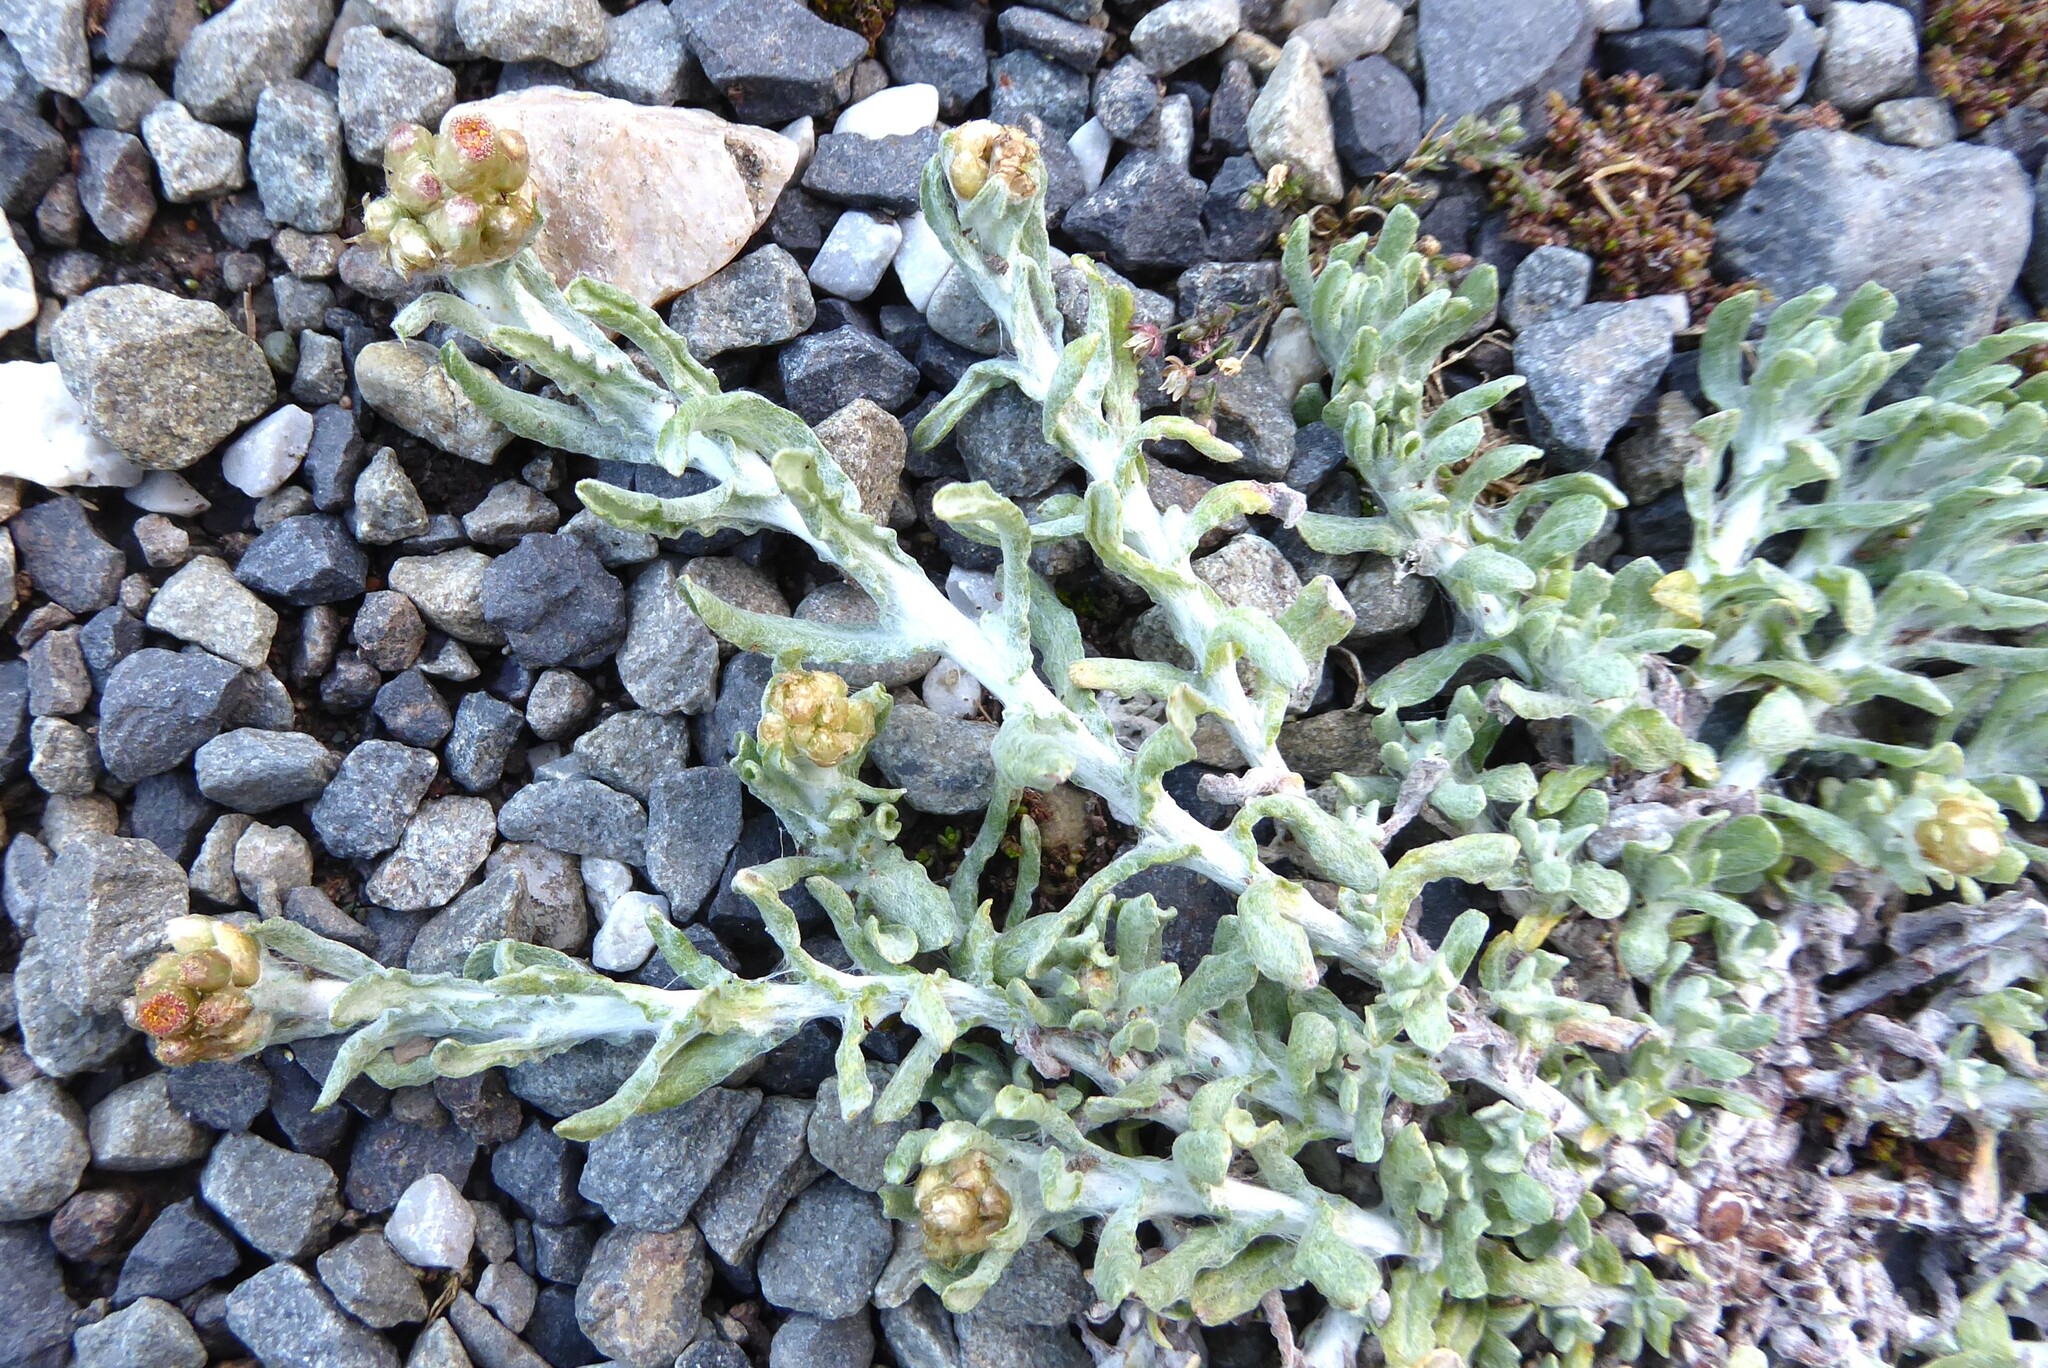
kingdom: Plantae
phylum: Tracheophyta
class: Magnoliopsida
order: Asterales
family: Asteraceae
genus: Helichrysum
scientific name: Helichrysum luteoalbum
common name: Daisy
